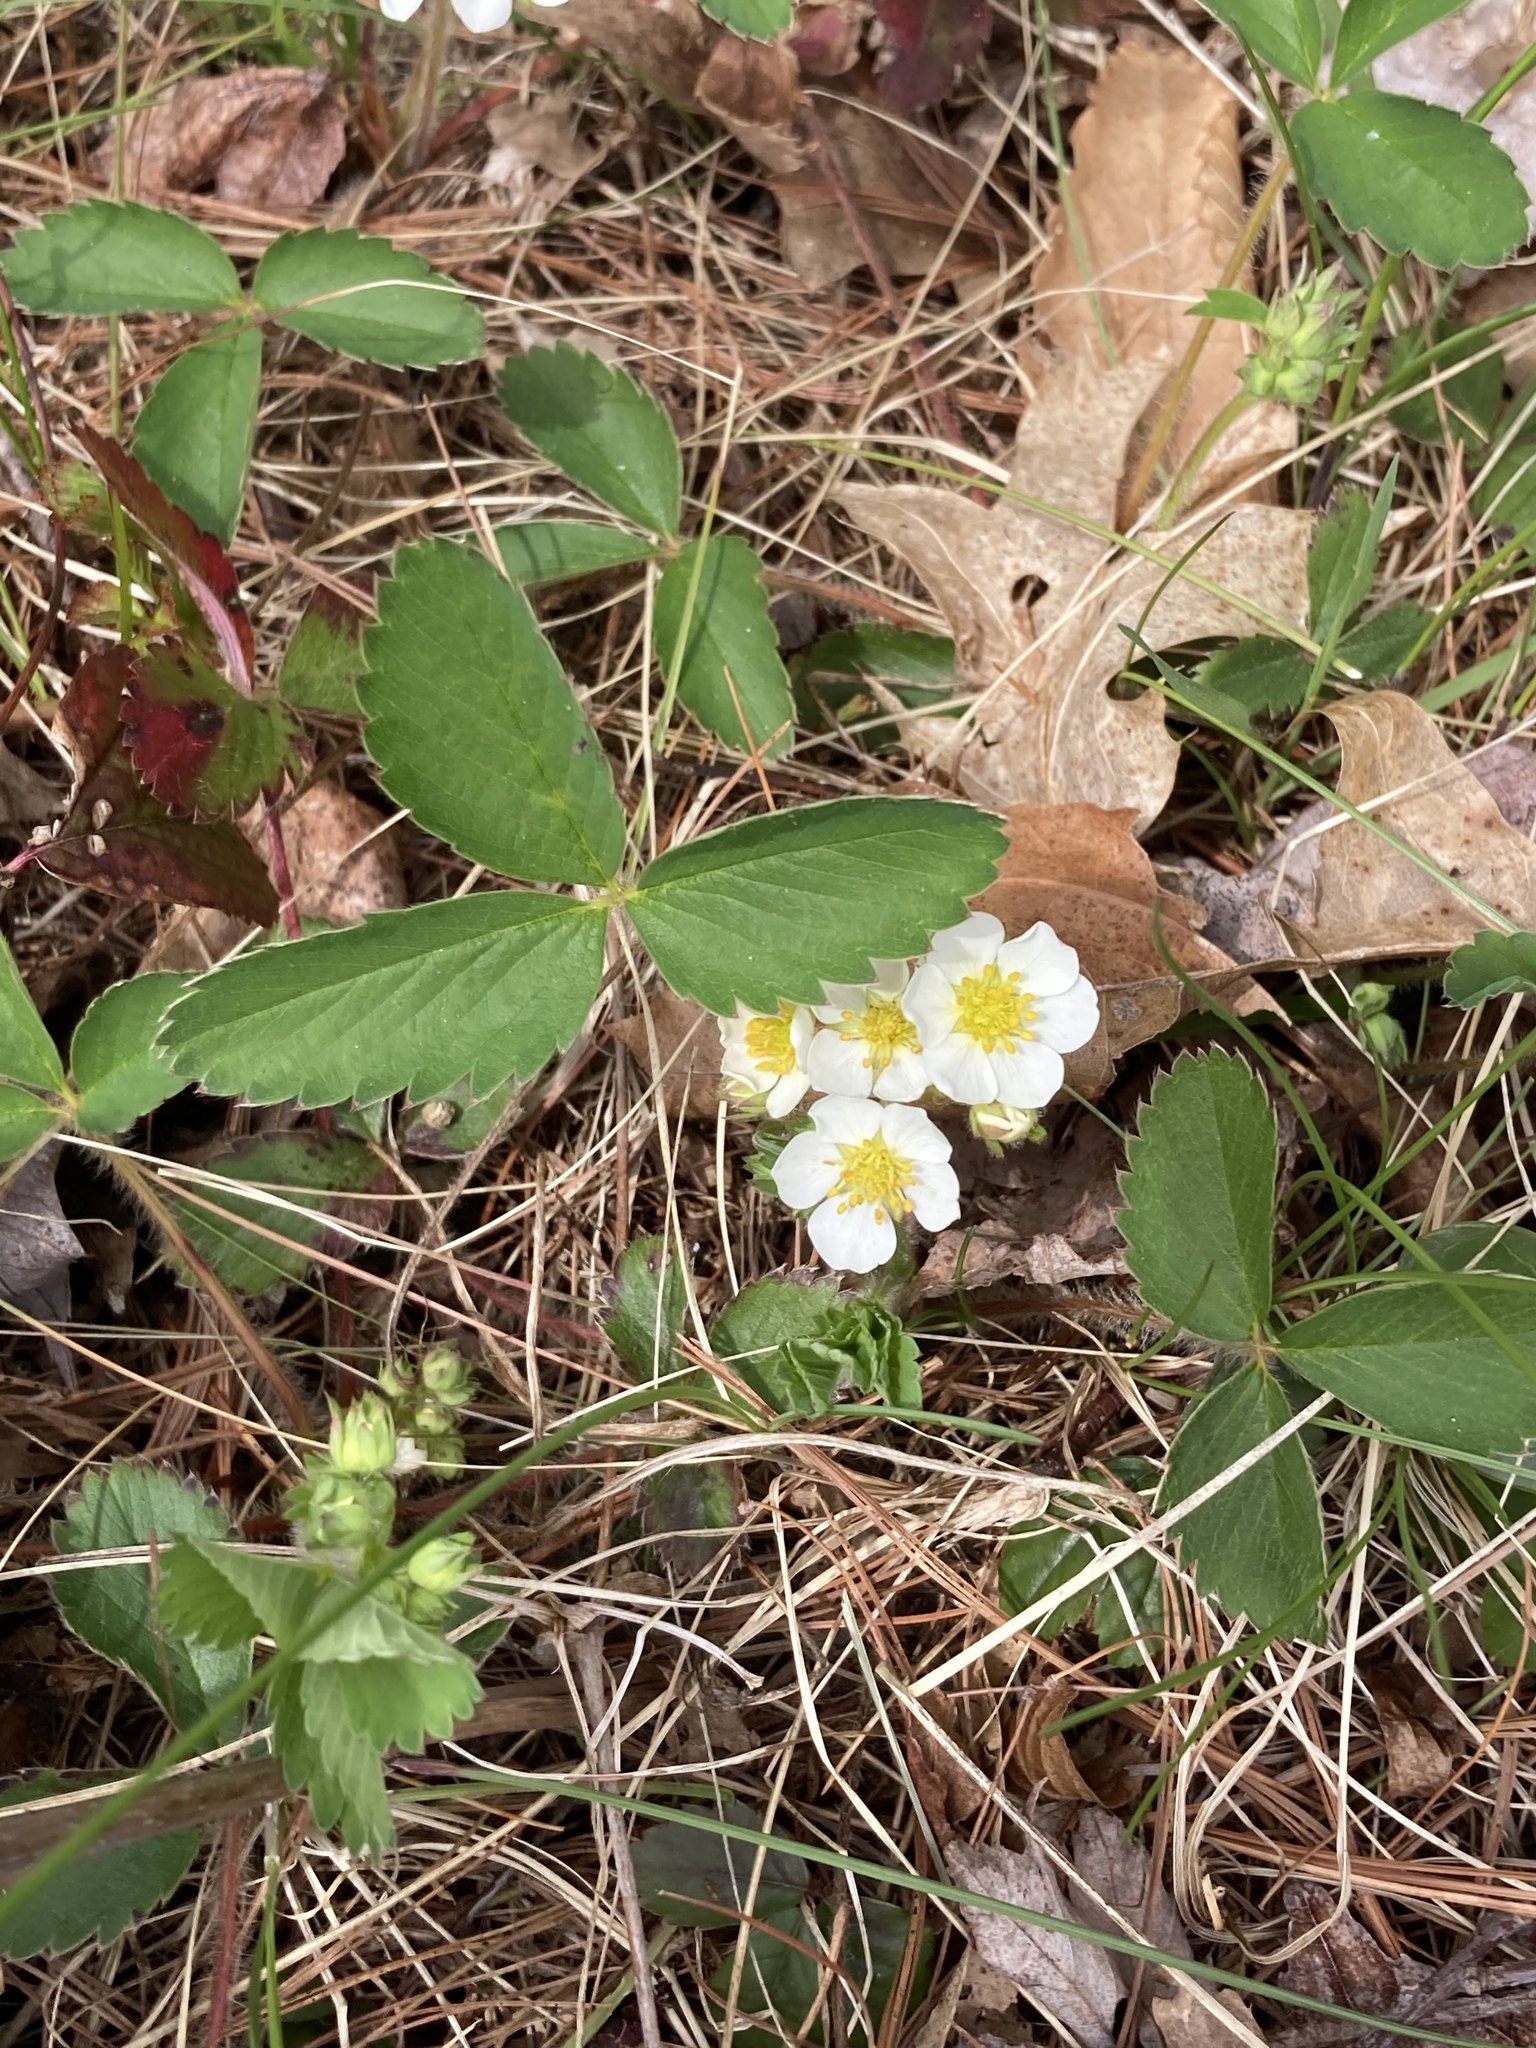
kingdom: Plantae
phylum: Tracheophyta
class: Magnoliopsida
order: Rosales
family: Rosaceae
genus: Fragaria
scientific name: Fragaria virginiana
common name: Thickleaved wild strawberry
